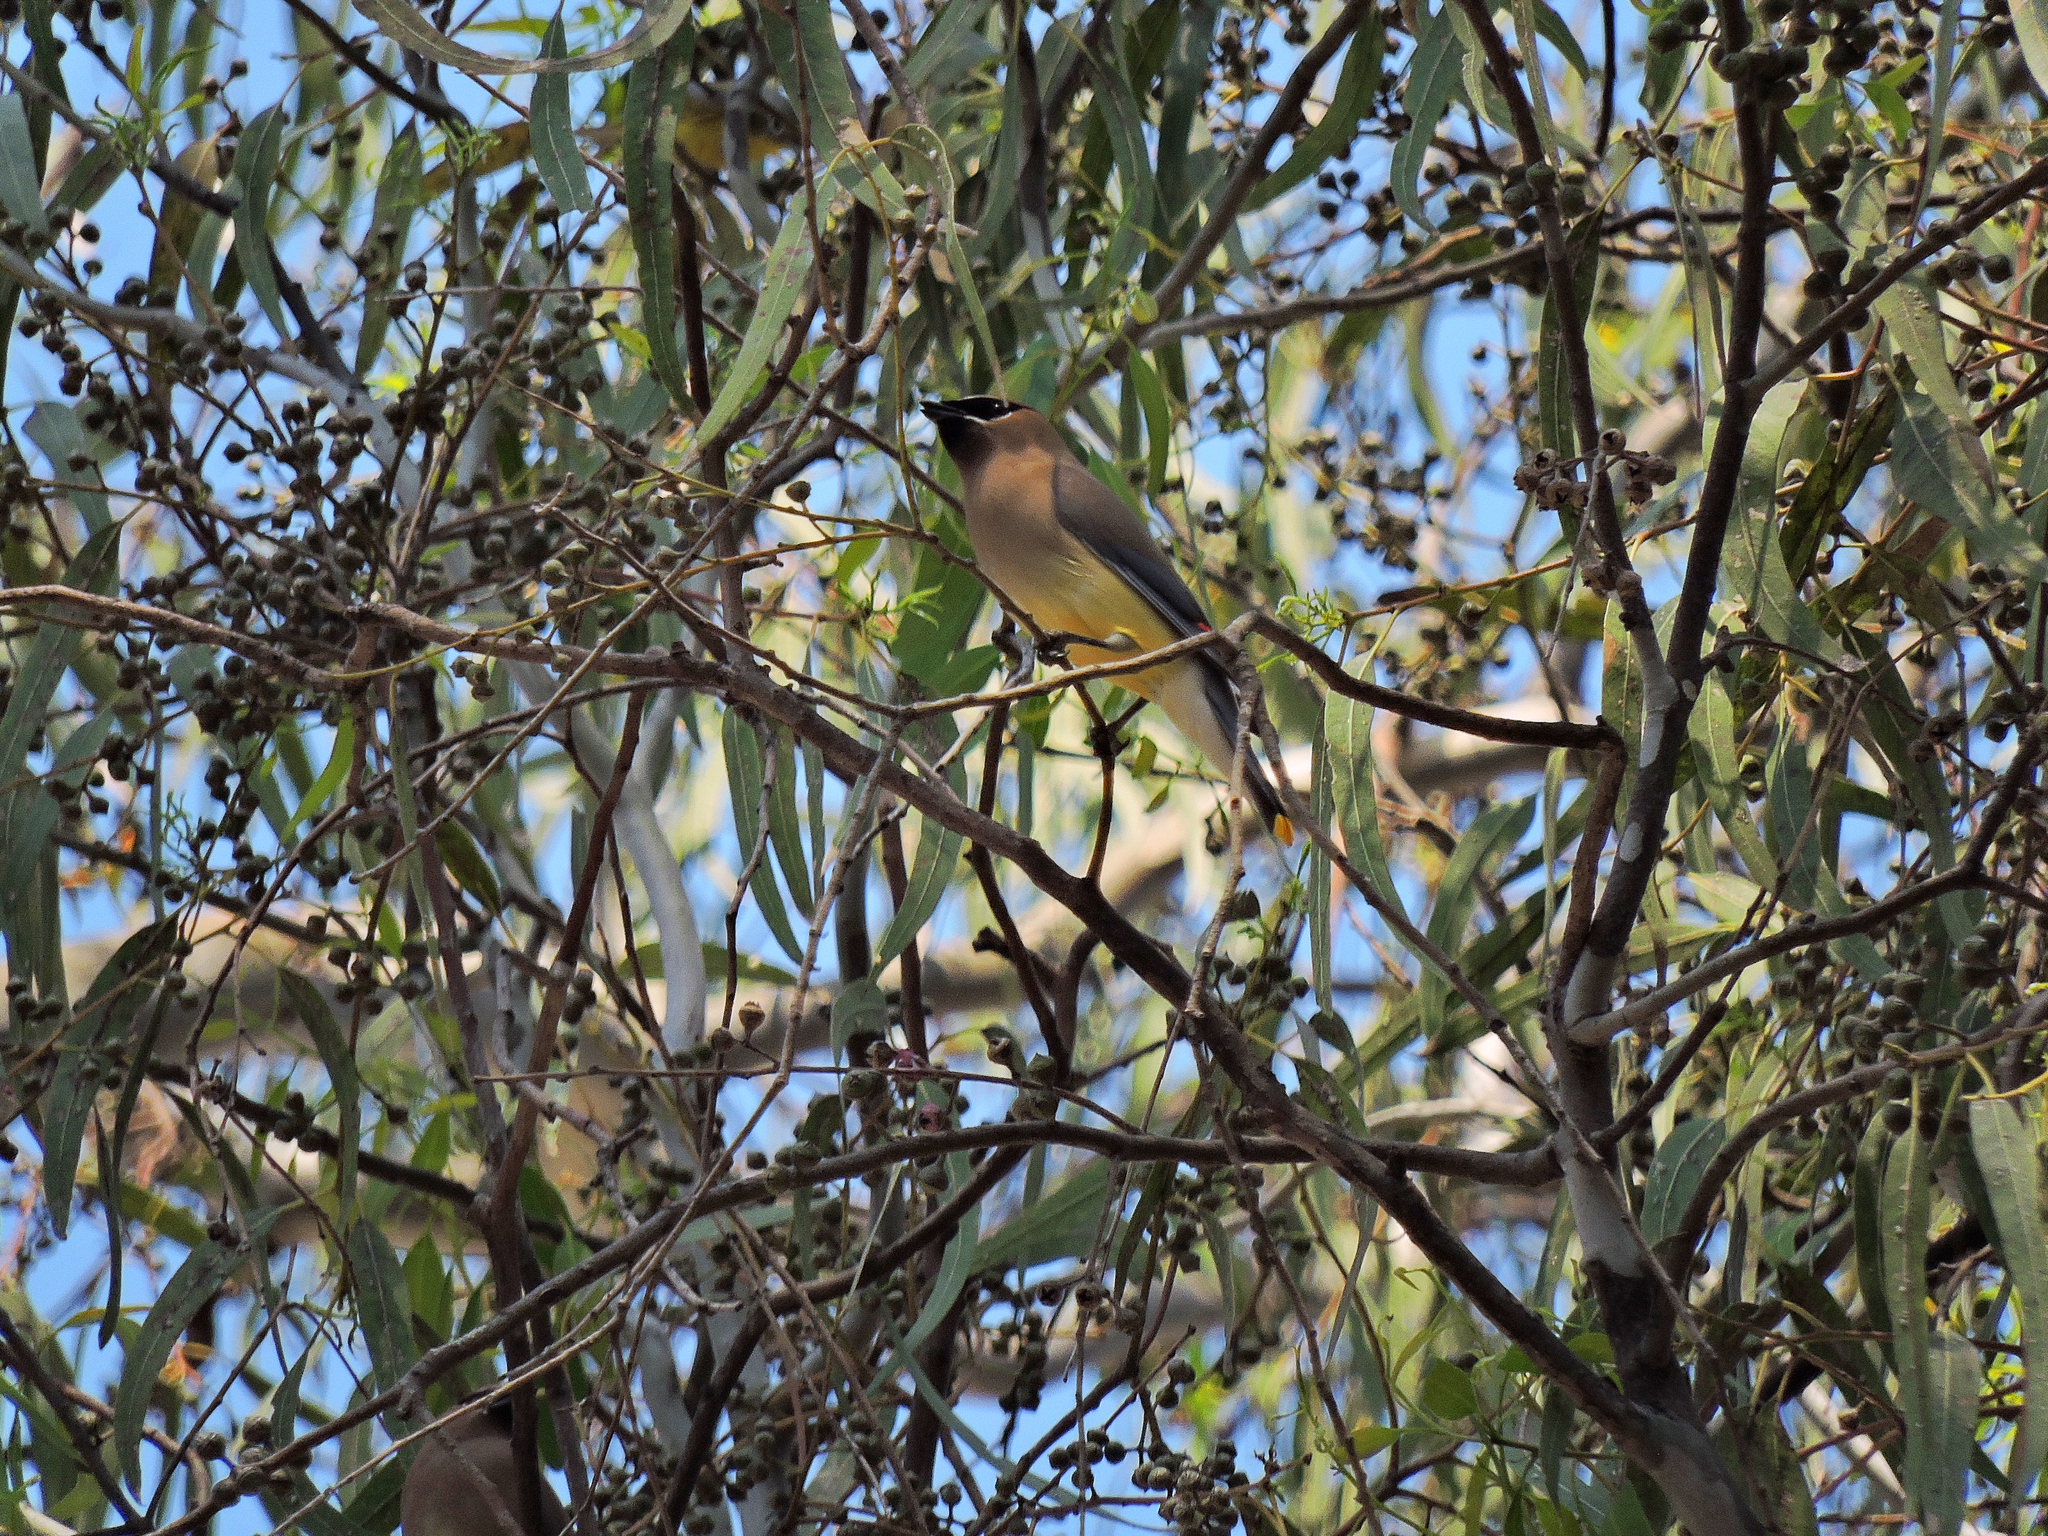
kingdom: Animalia
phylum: Chordata
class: Aves
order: Passeriformes
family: Bombycillidae
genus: Bombycilla
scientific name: Bombycilla cedrorum
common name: Cedar waxwing
